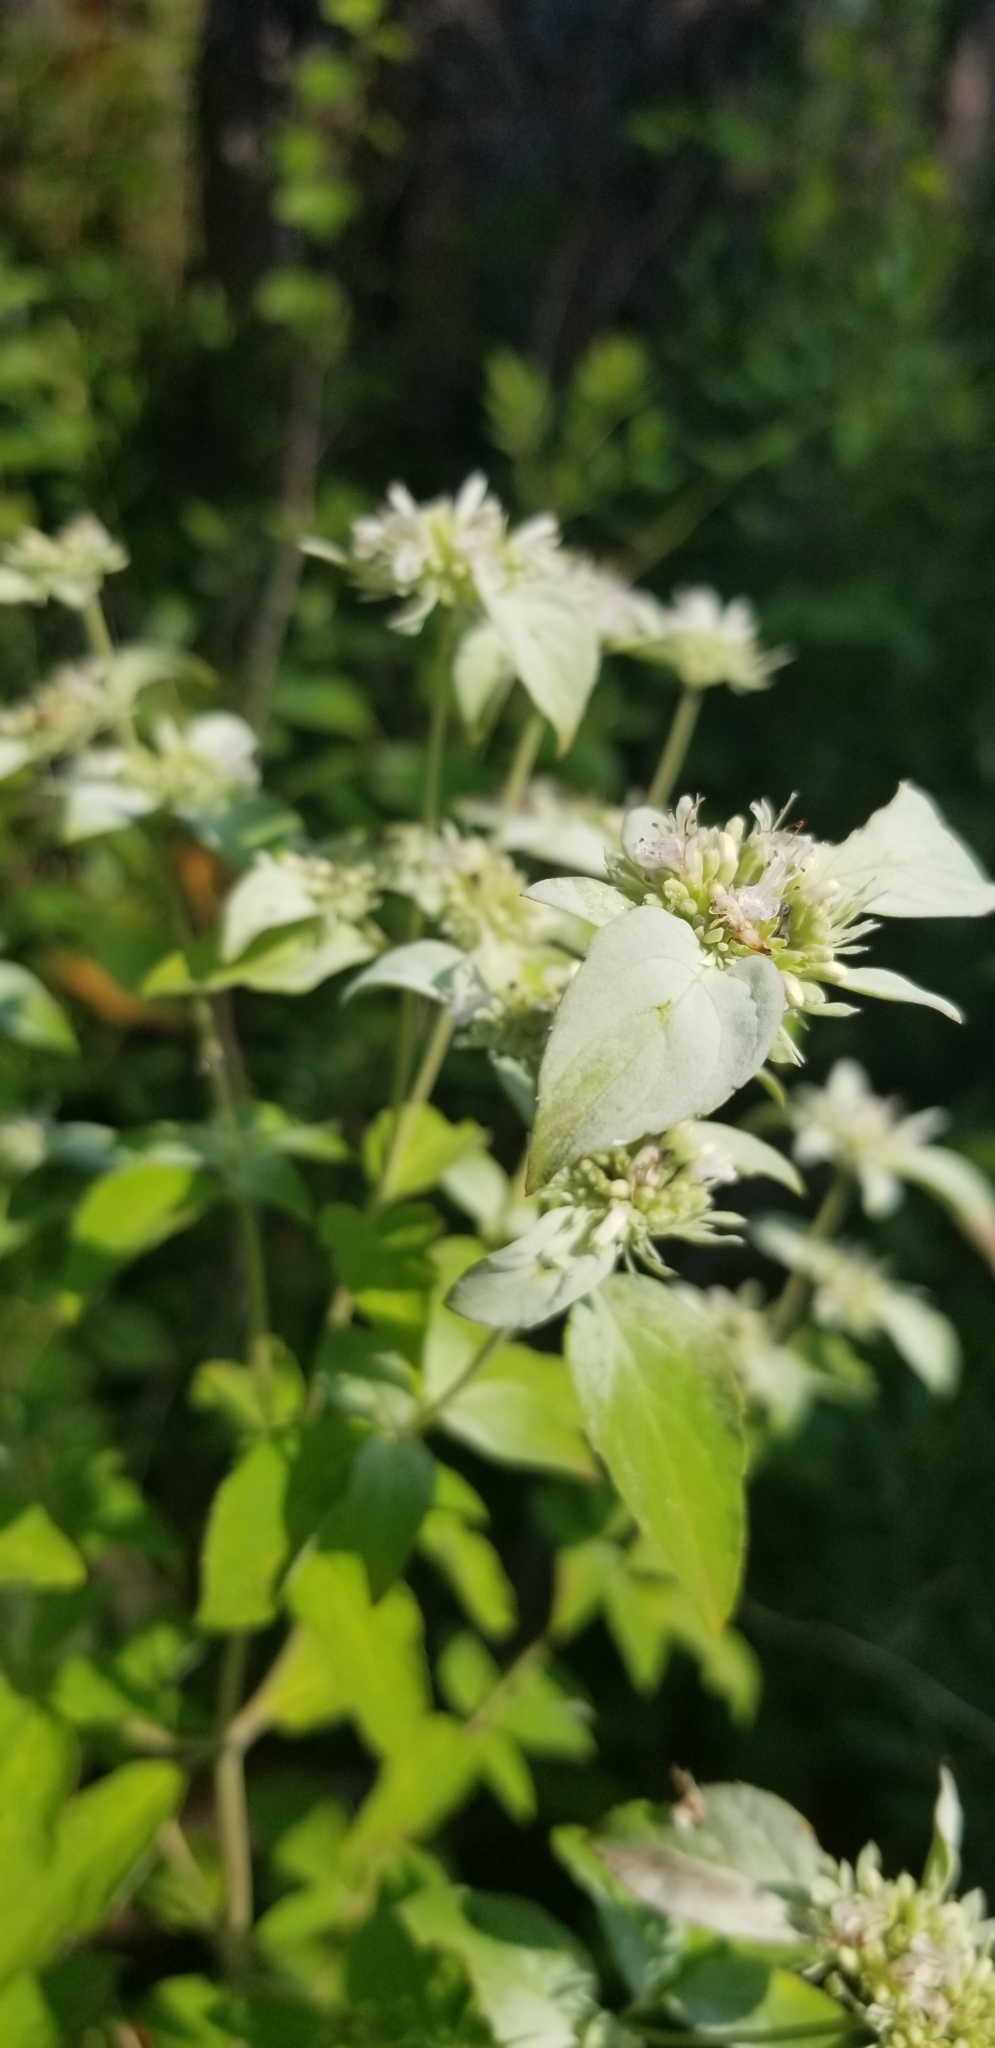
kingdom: Plantae
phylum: Tracheophyta
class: Magnoliopsida
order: Lamiales
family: Lamiaceae
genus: Pycnanthemum
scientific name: Pycnanthemum albescens
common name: White-leaf mountain-mint
